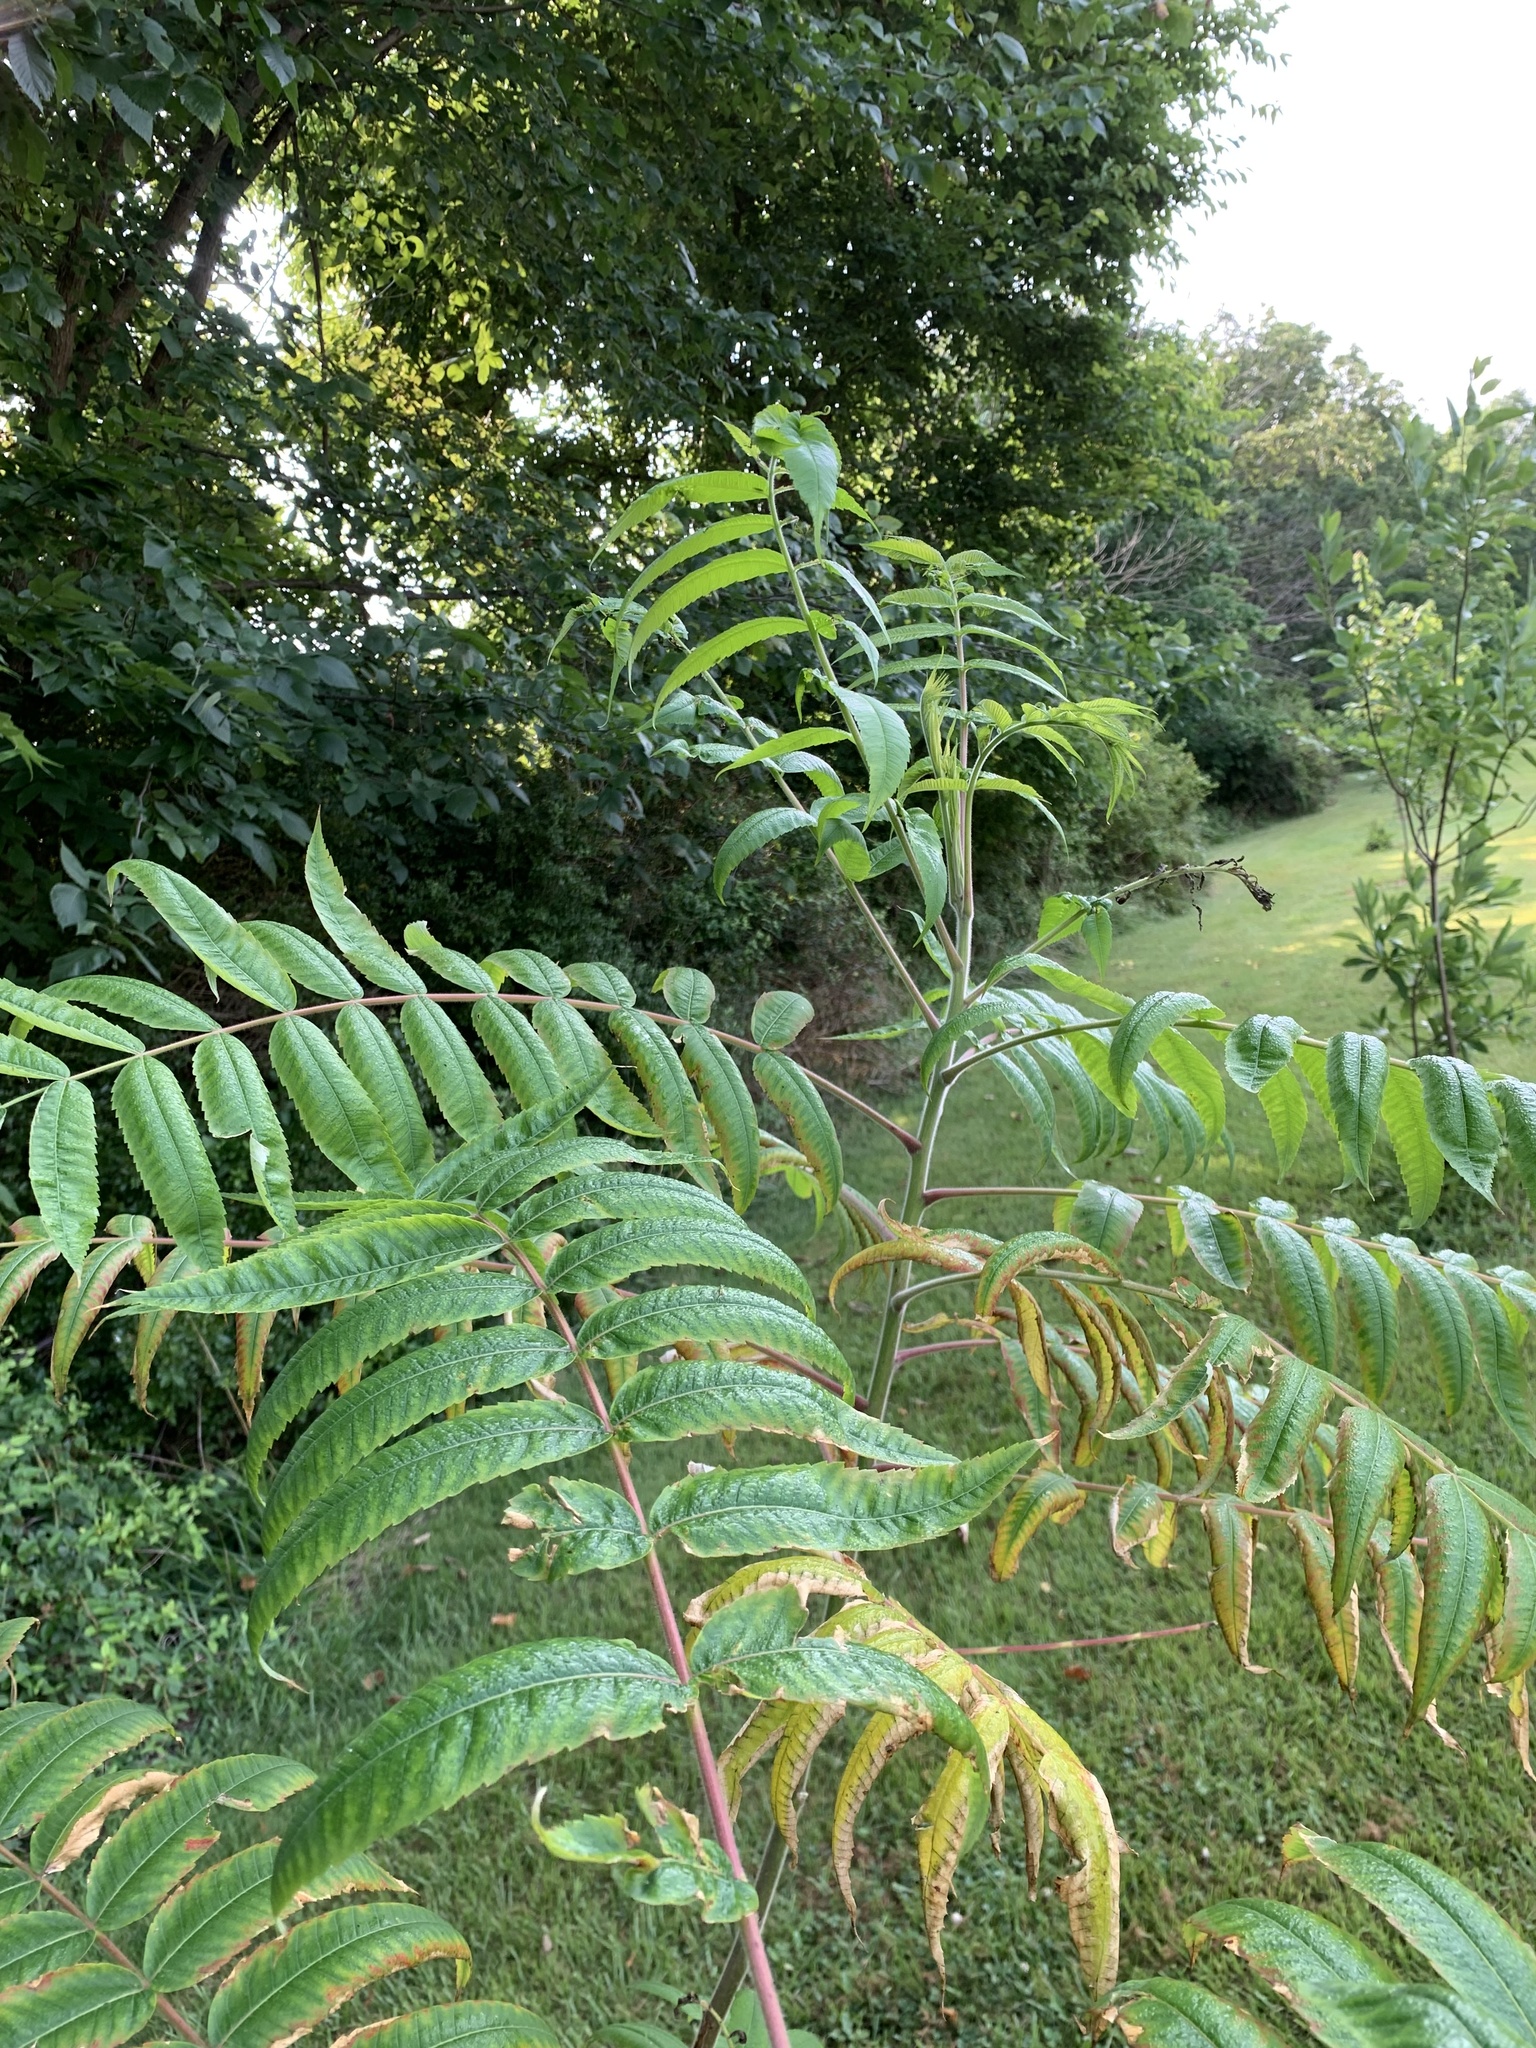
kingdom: Plantae
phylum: Tracheophyta
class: Magnoliopsida
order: Sapindales
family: Anacardiaceae
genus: Rhus
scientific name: Rhus typhina
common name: Staghorn sumac
